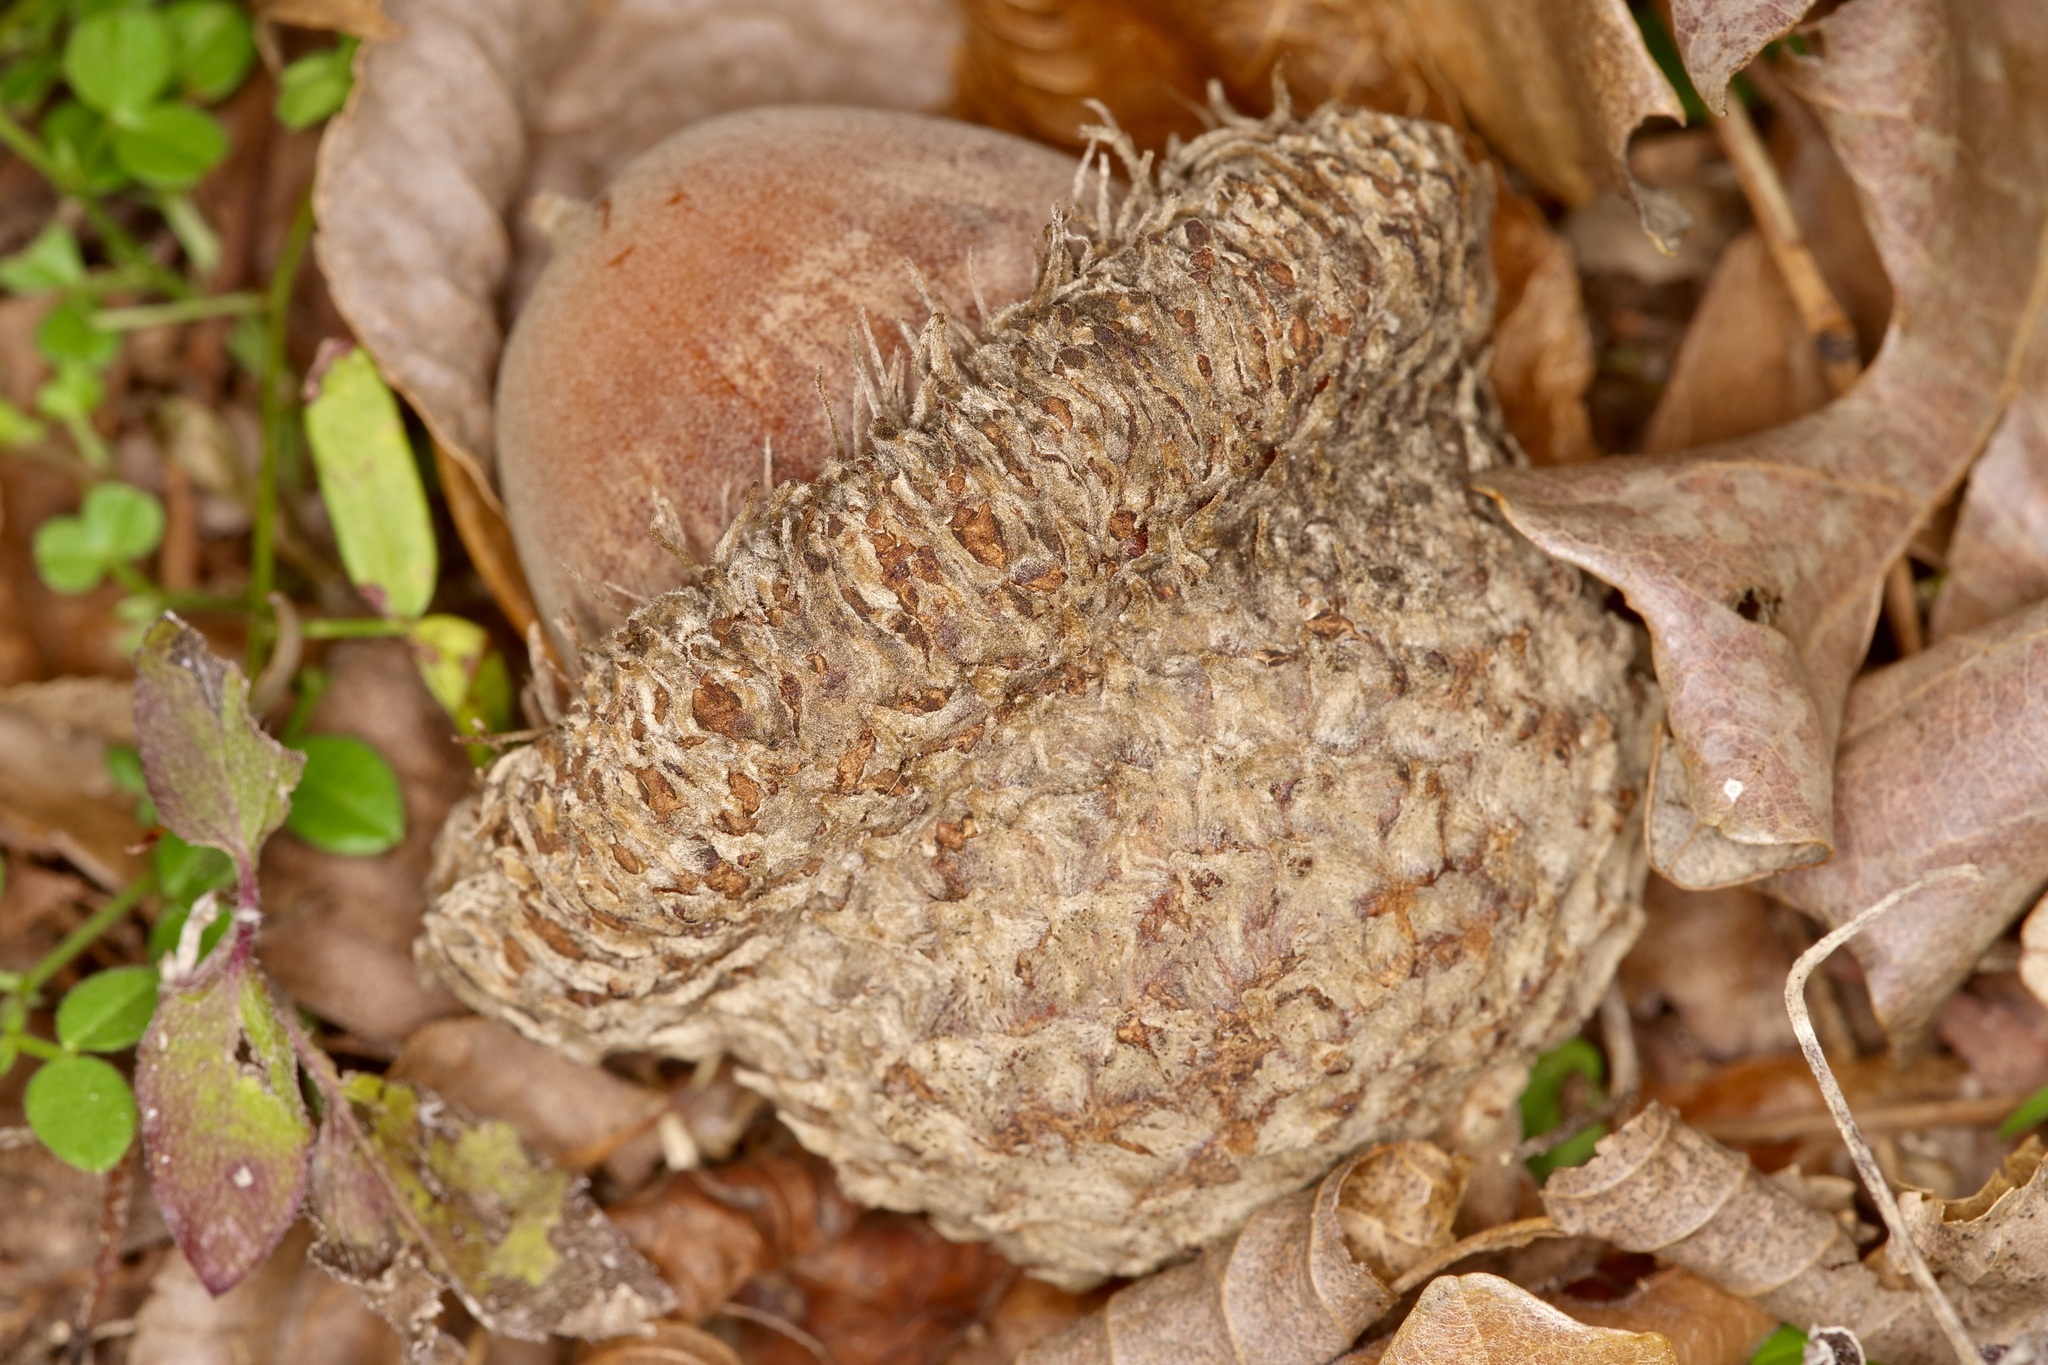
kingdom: Plantae
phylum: Tracheophyta
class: Magnoliopsida
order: Fagales
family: Fagaceae
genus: Quercus
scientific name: Quercus macrocarpa
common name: Bur oak
